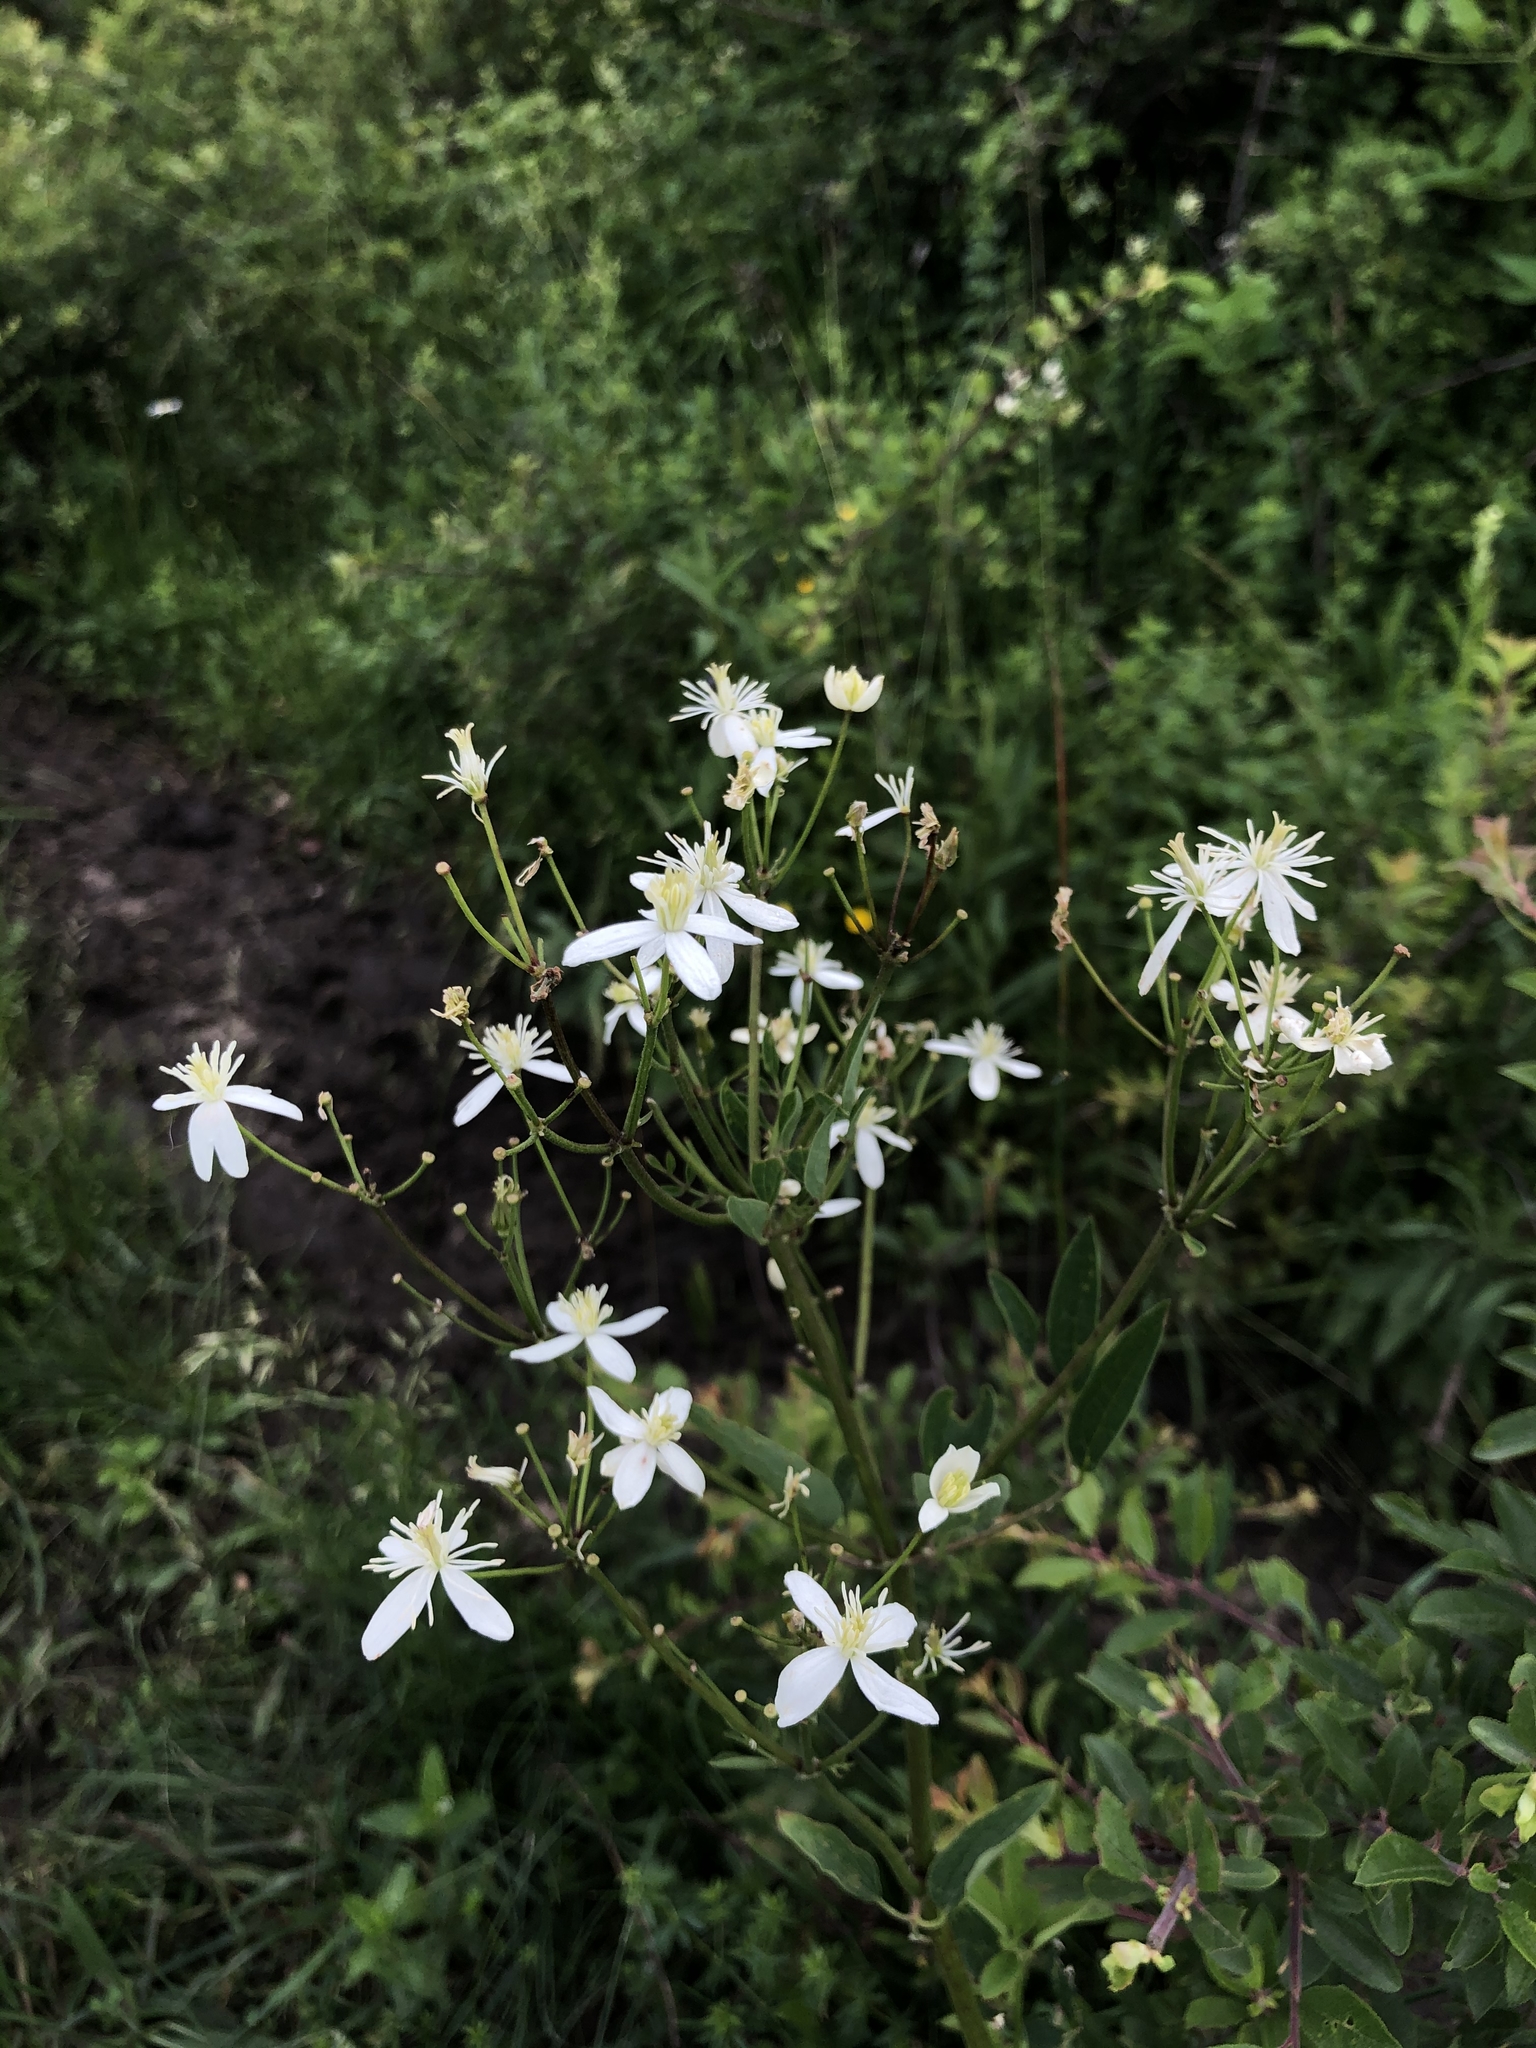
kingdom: Plantae
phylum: Tracheophyta
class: Magnoliopsida
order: Ranunculales
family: Ranunculaceae
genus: Clematis
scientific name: Clematis recta
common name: Ground clematis
